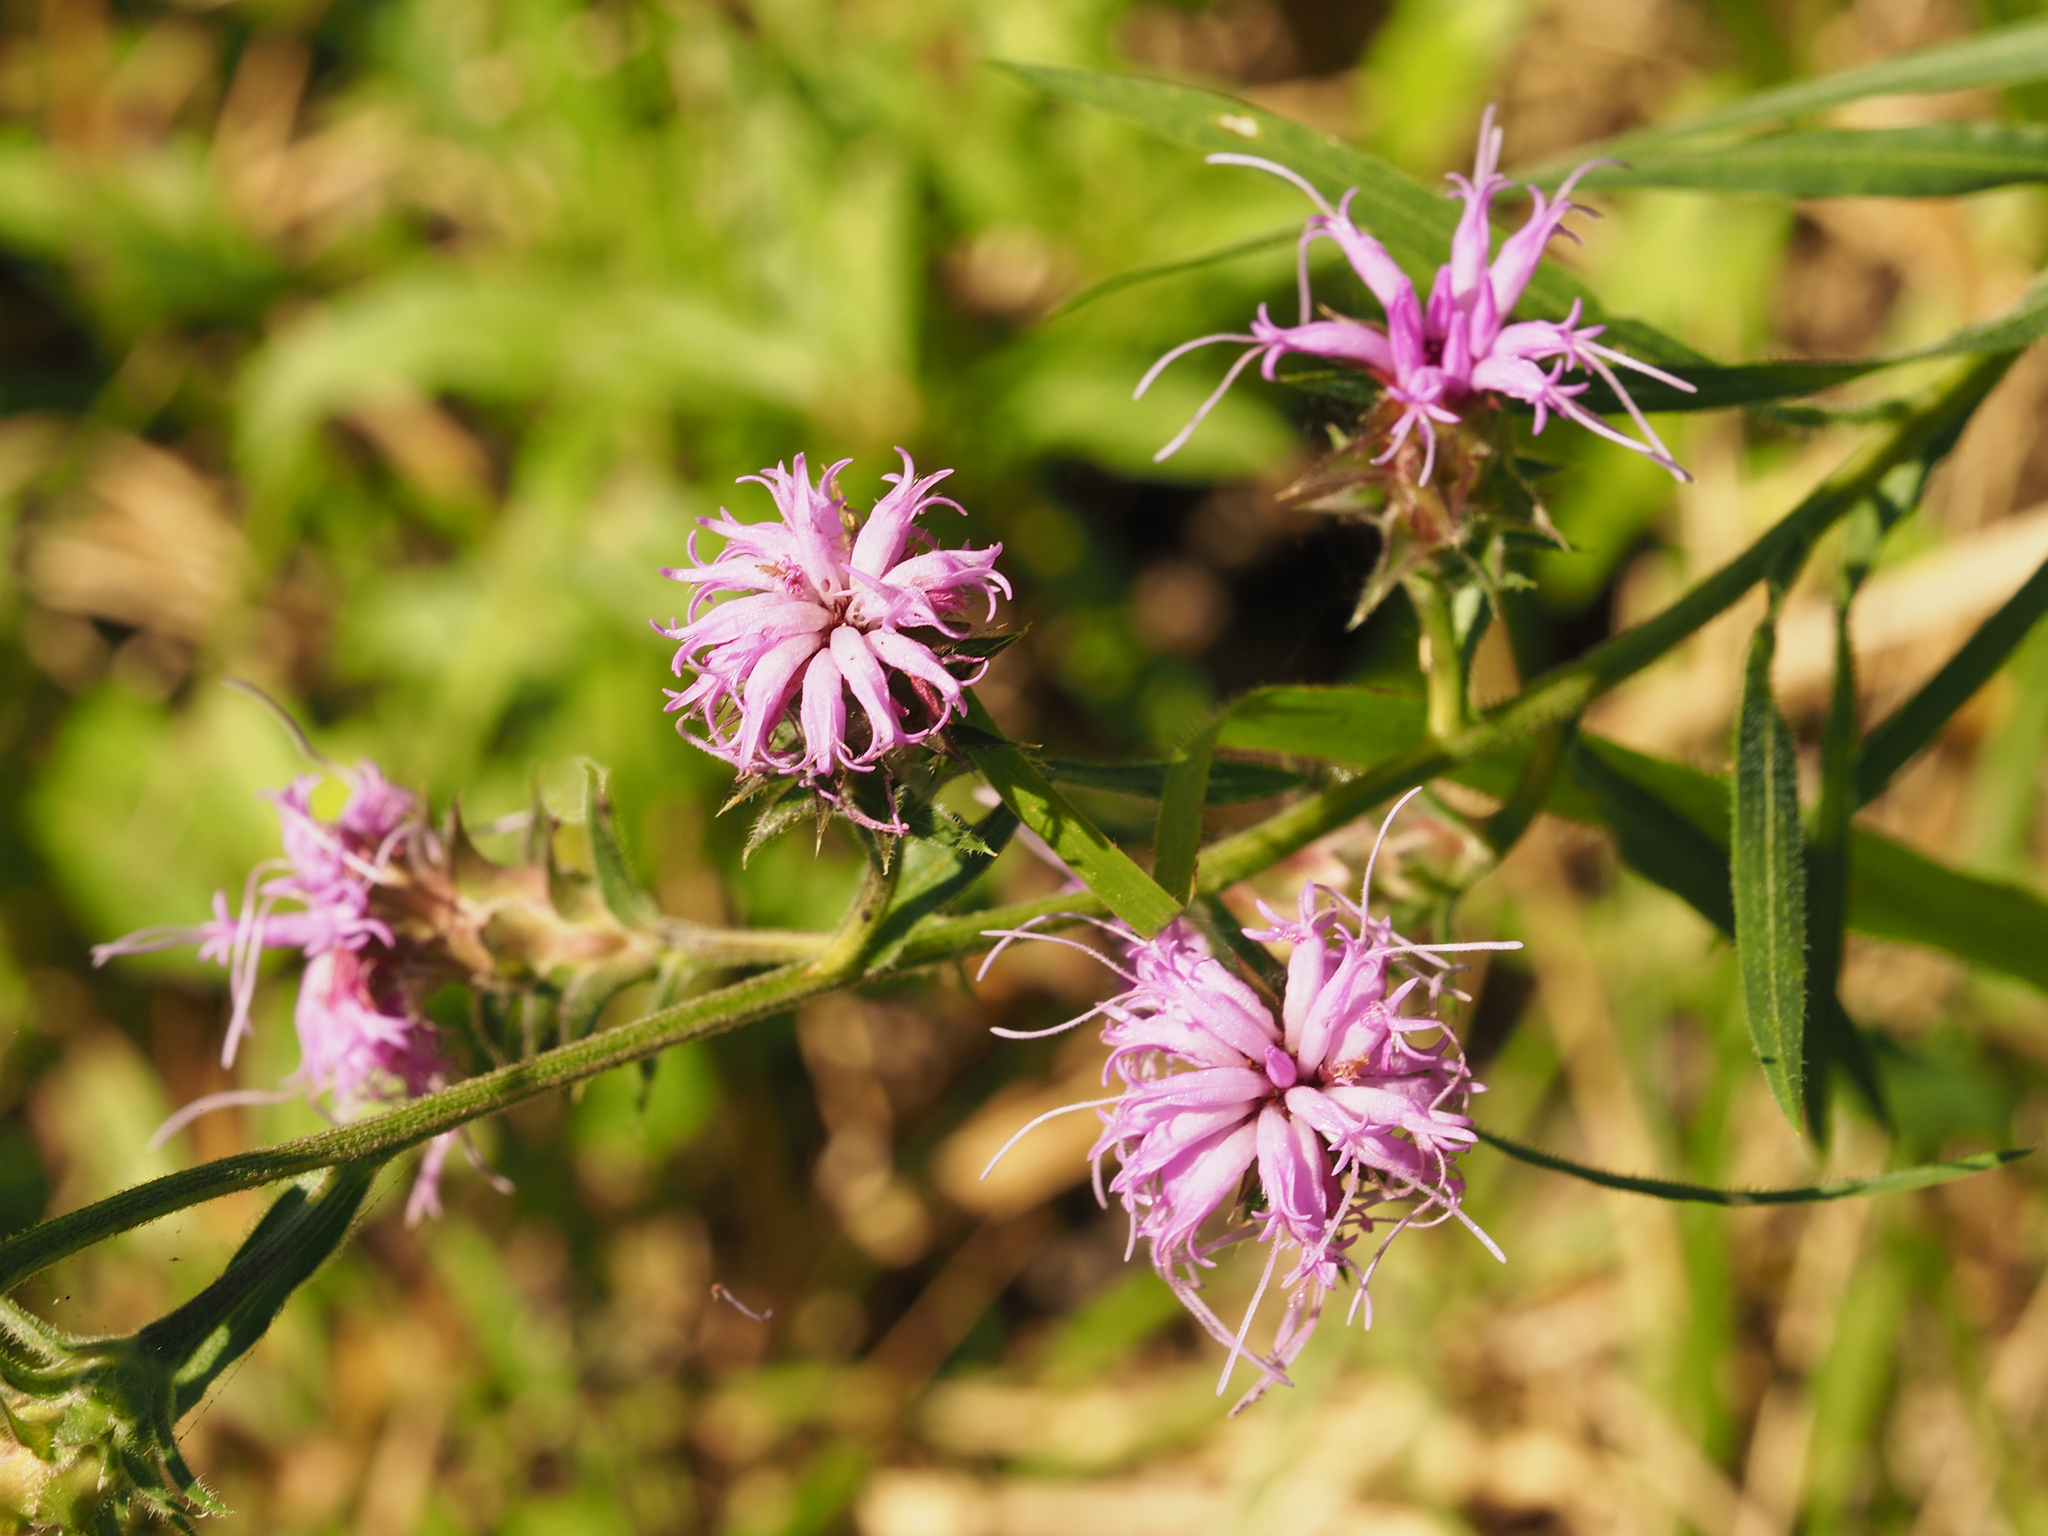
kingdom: Plantae
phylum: Tracheophyta
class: Magnoliopsida
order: Asterales
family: Asteraceae
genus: Liatris
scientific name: Liatris squarrosa
